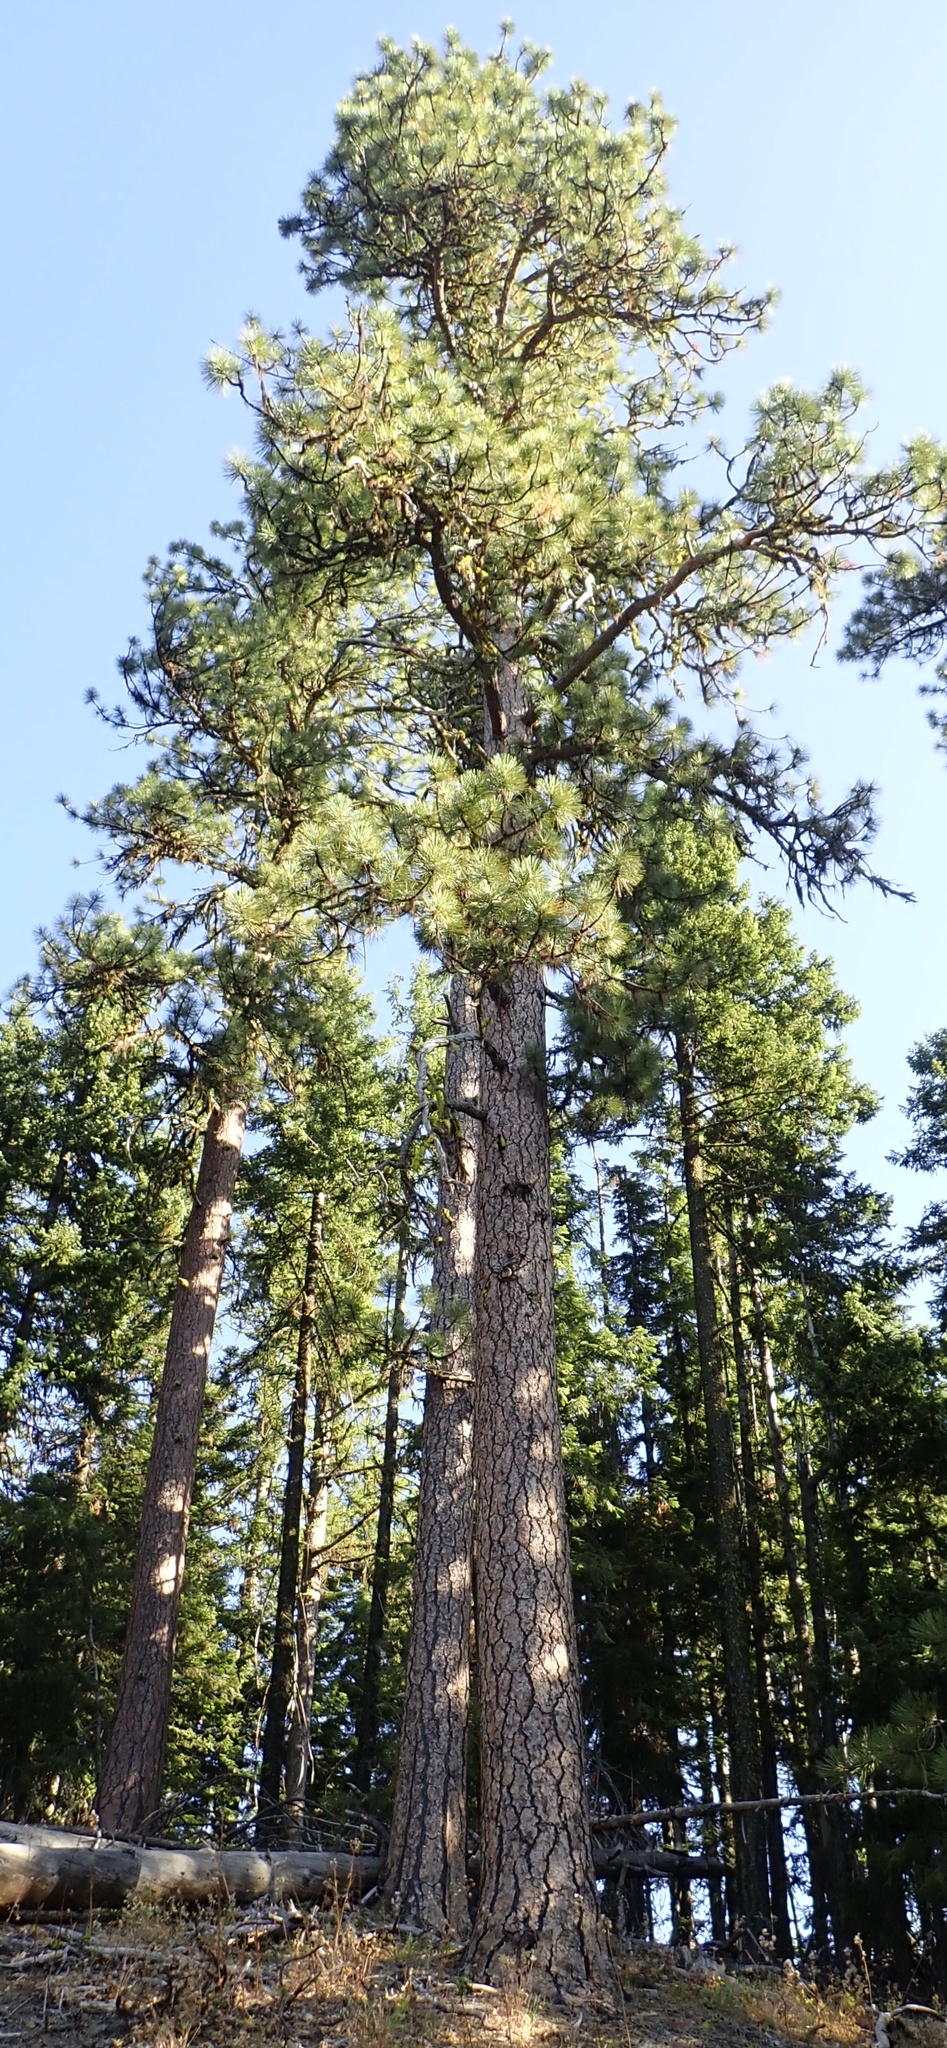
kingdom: Plantae
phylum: Tracheophyta
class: Pinopsida
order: Pinales
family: Pinaceae
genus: Pinus
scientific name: Pinus ponderosa
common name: Western yellow-pine
